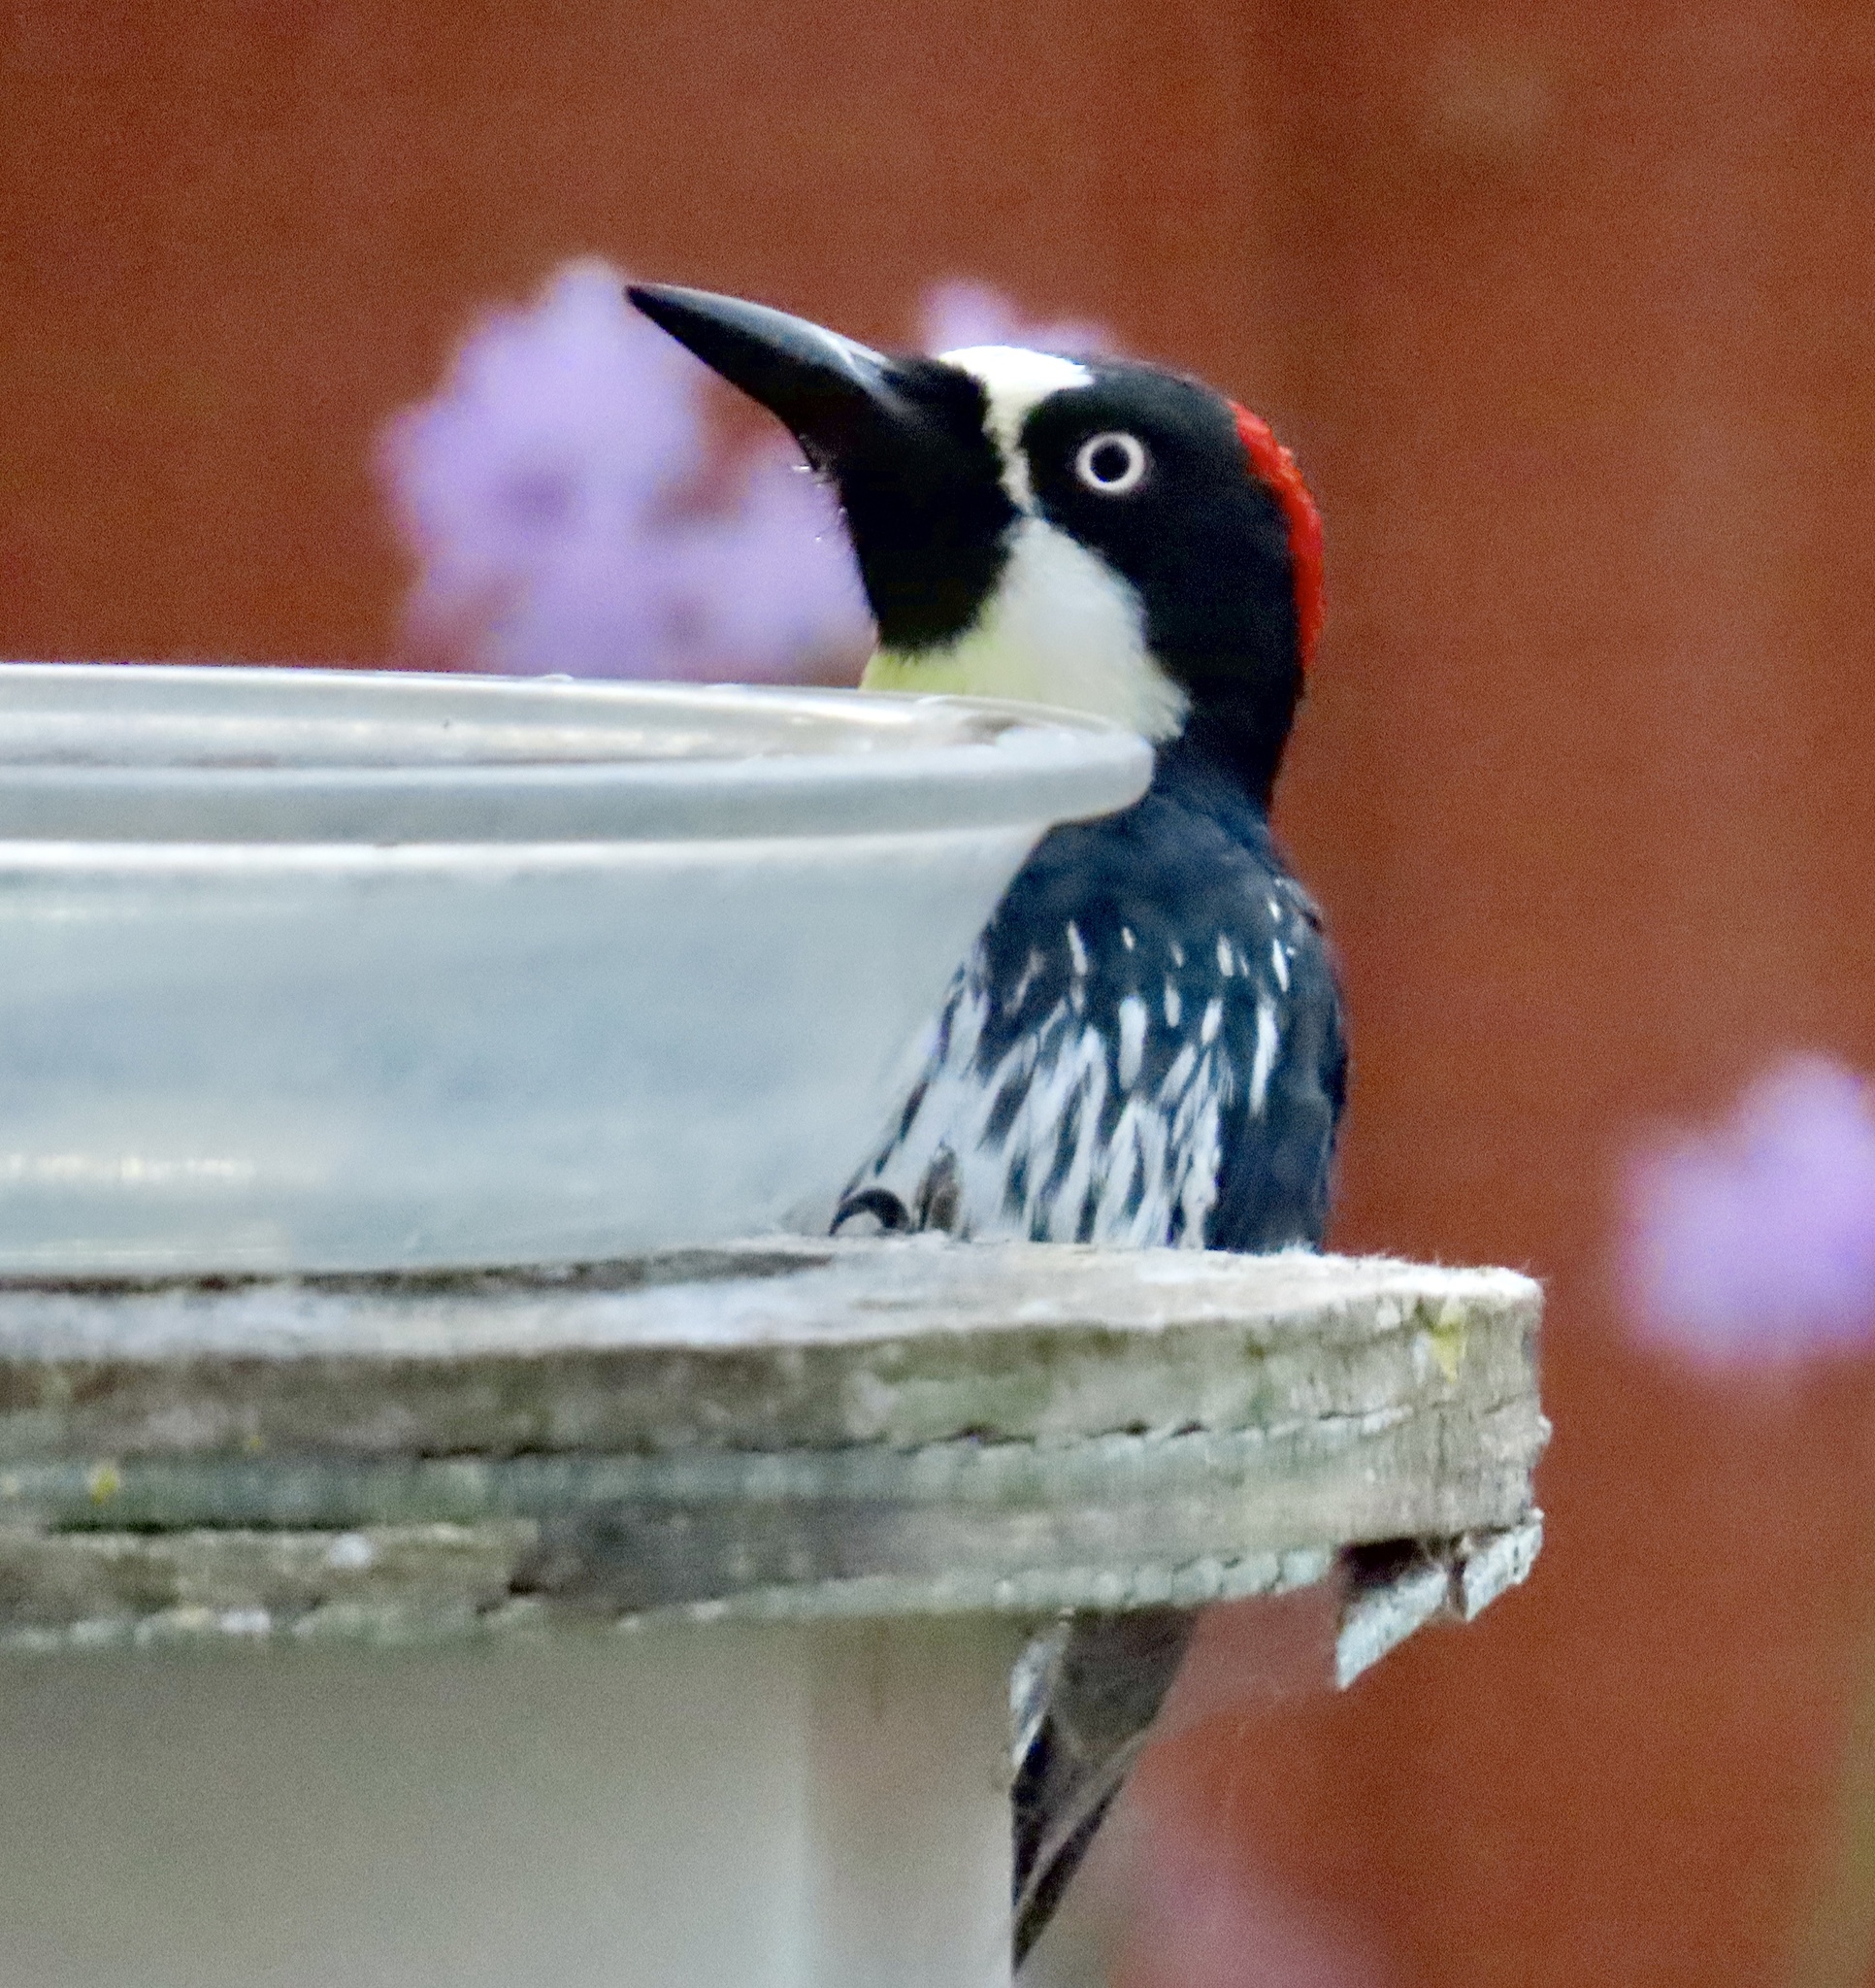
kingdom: Animalia
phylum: Chordata
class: Aves
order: Piciformes
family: Picidae
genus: Melanerpes
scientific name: Melanerpes formicivorus
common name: Acorn woodpecker
